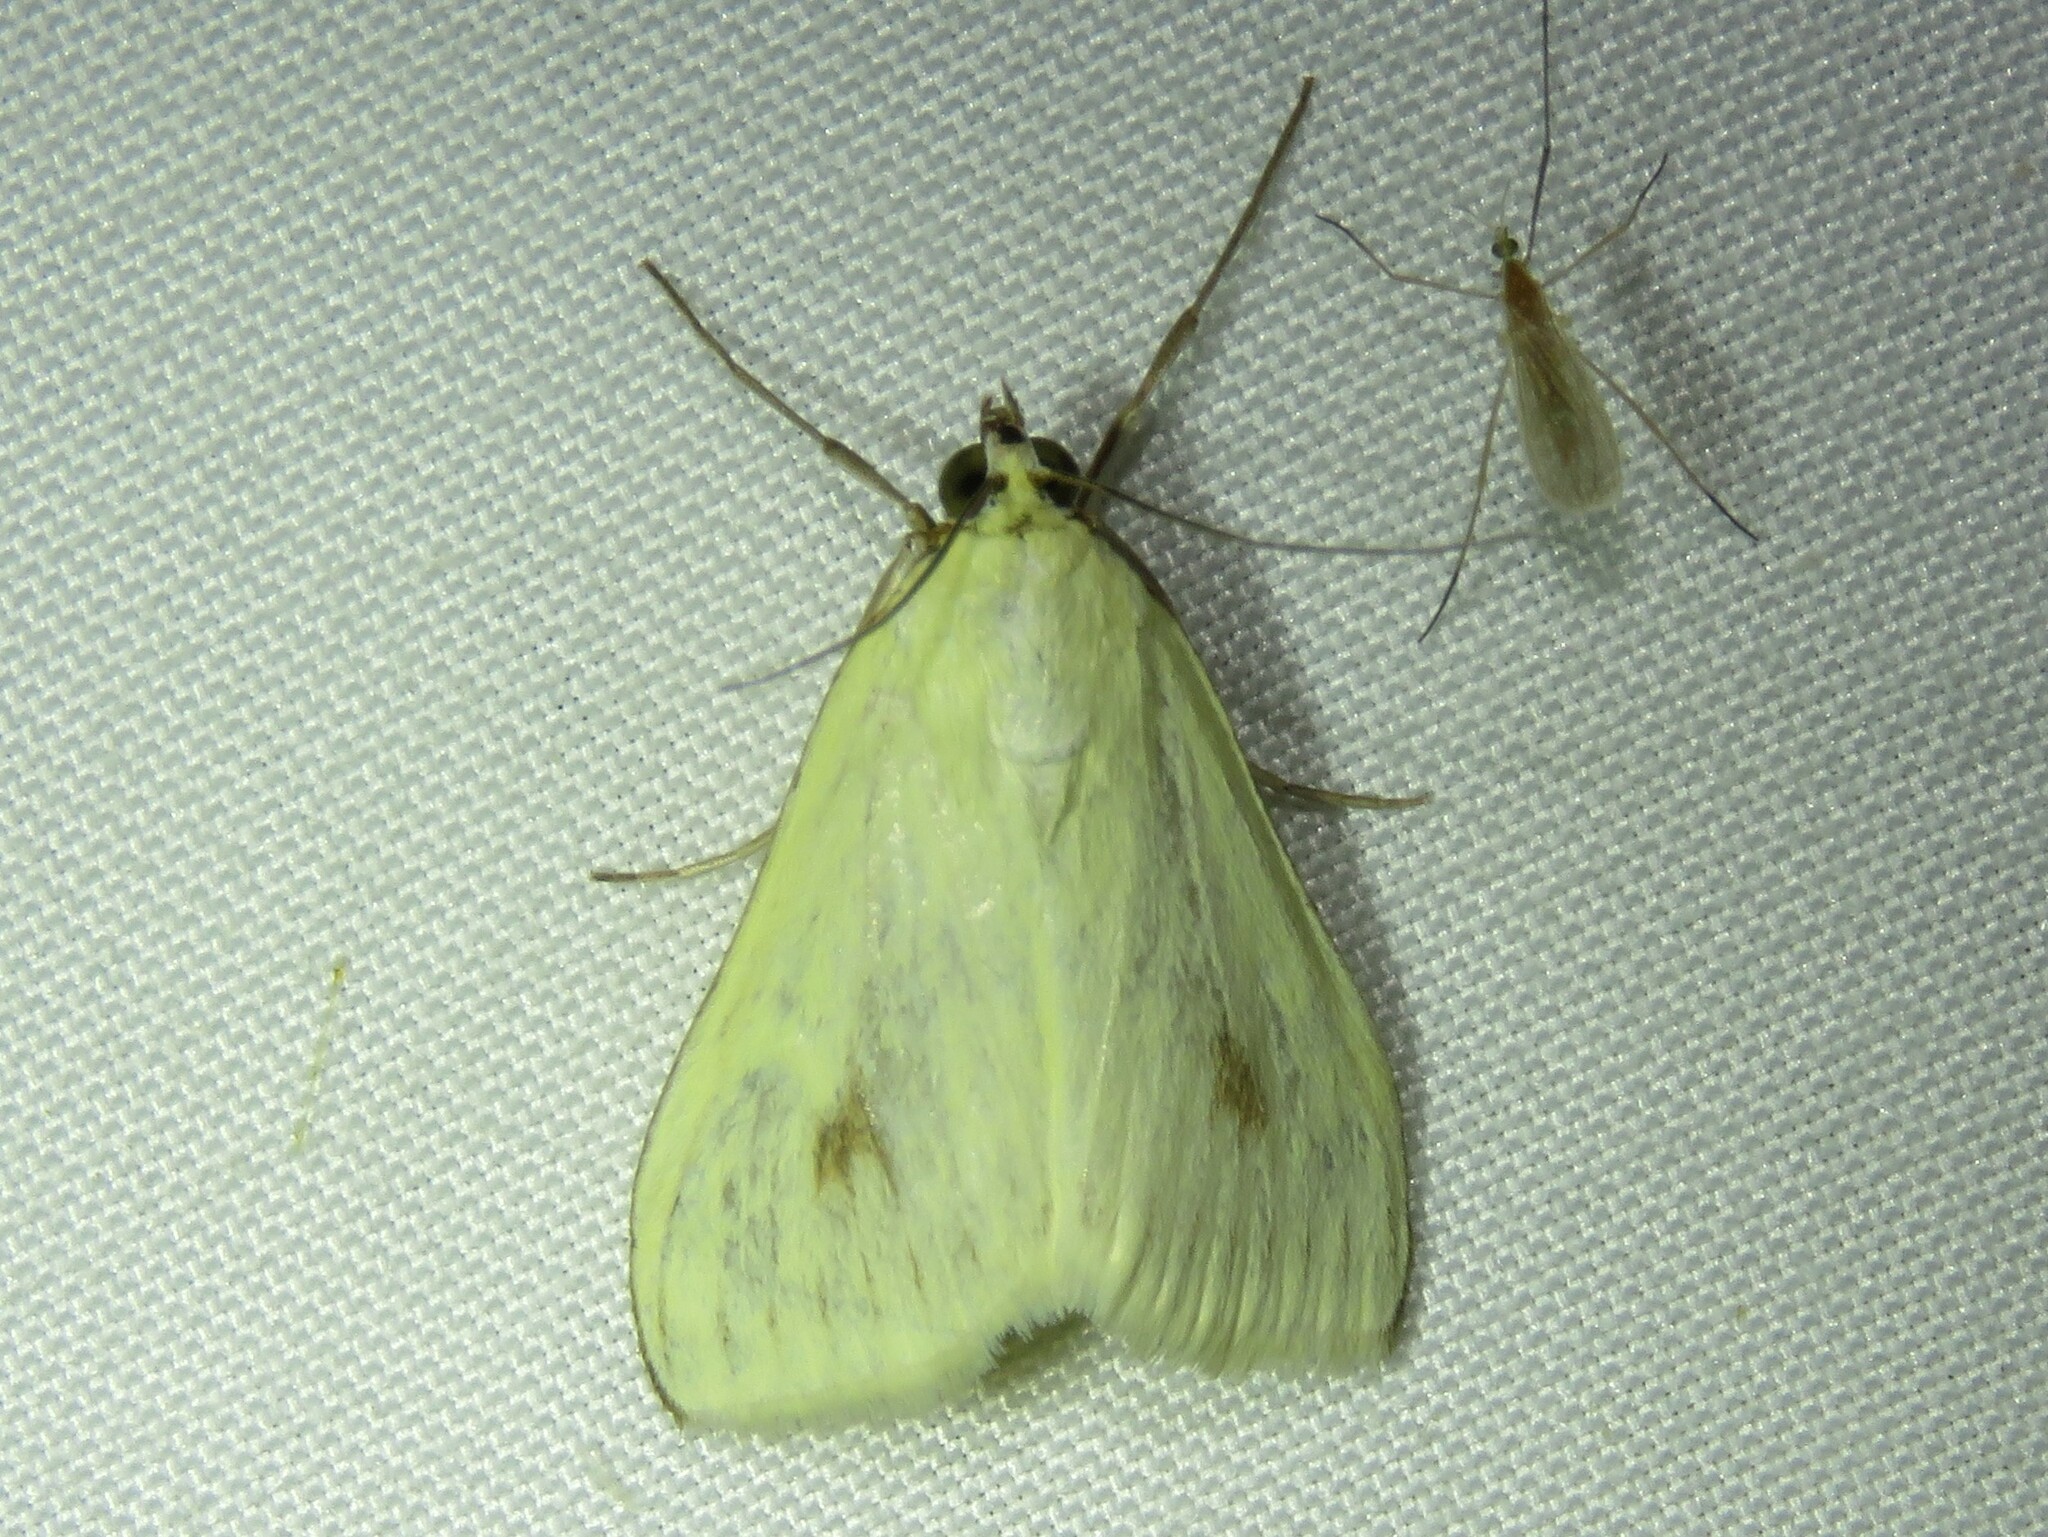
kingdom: Animalia
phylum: Arthropoda
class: Insecta
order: Lepidoptera
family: Crambidae
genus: Sitochroa
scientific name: Sitochroa palealis
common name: Greenish-yellow sitochroa moth
